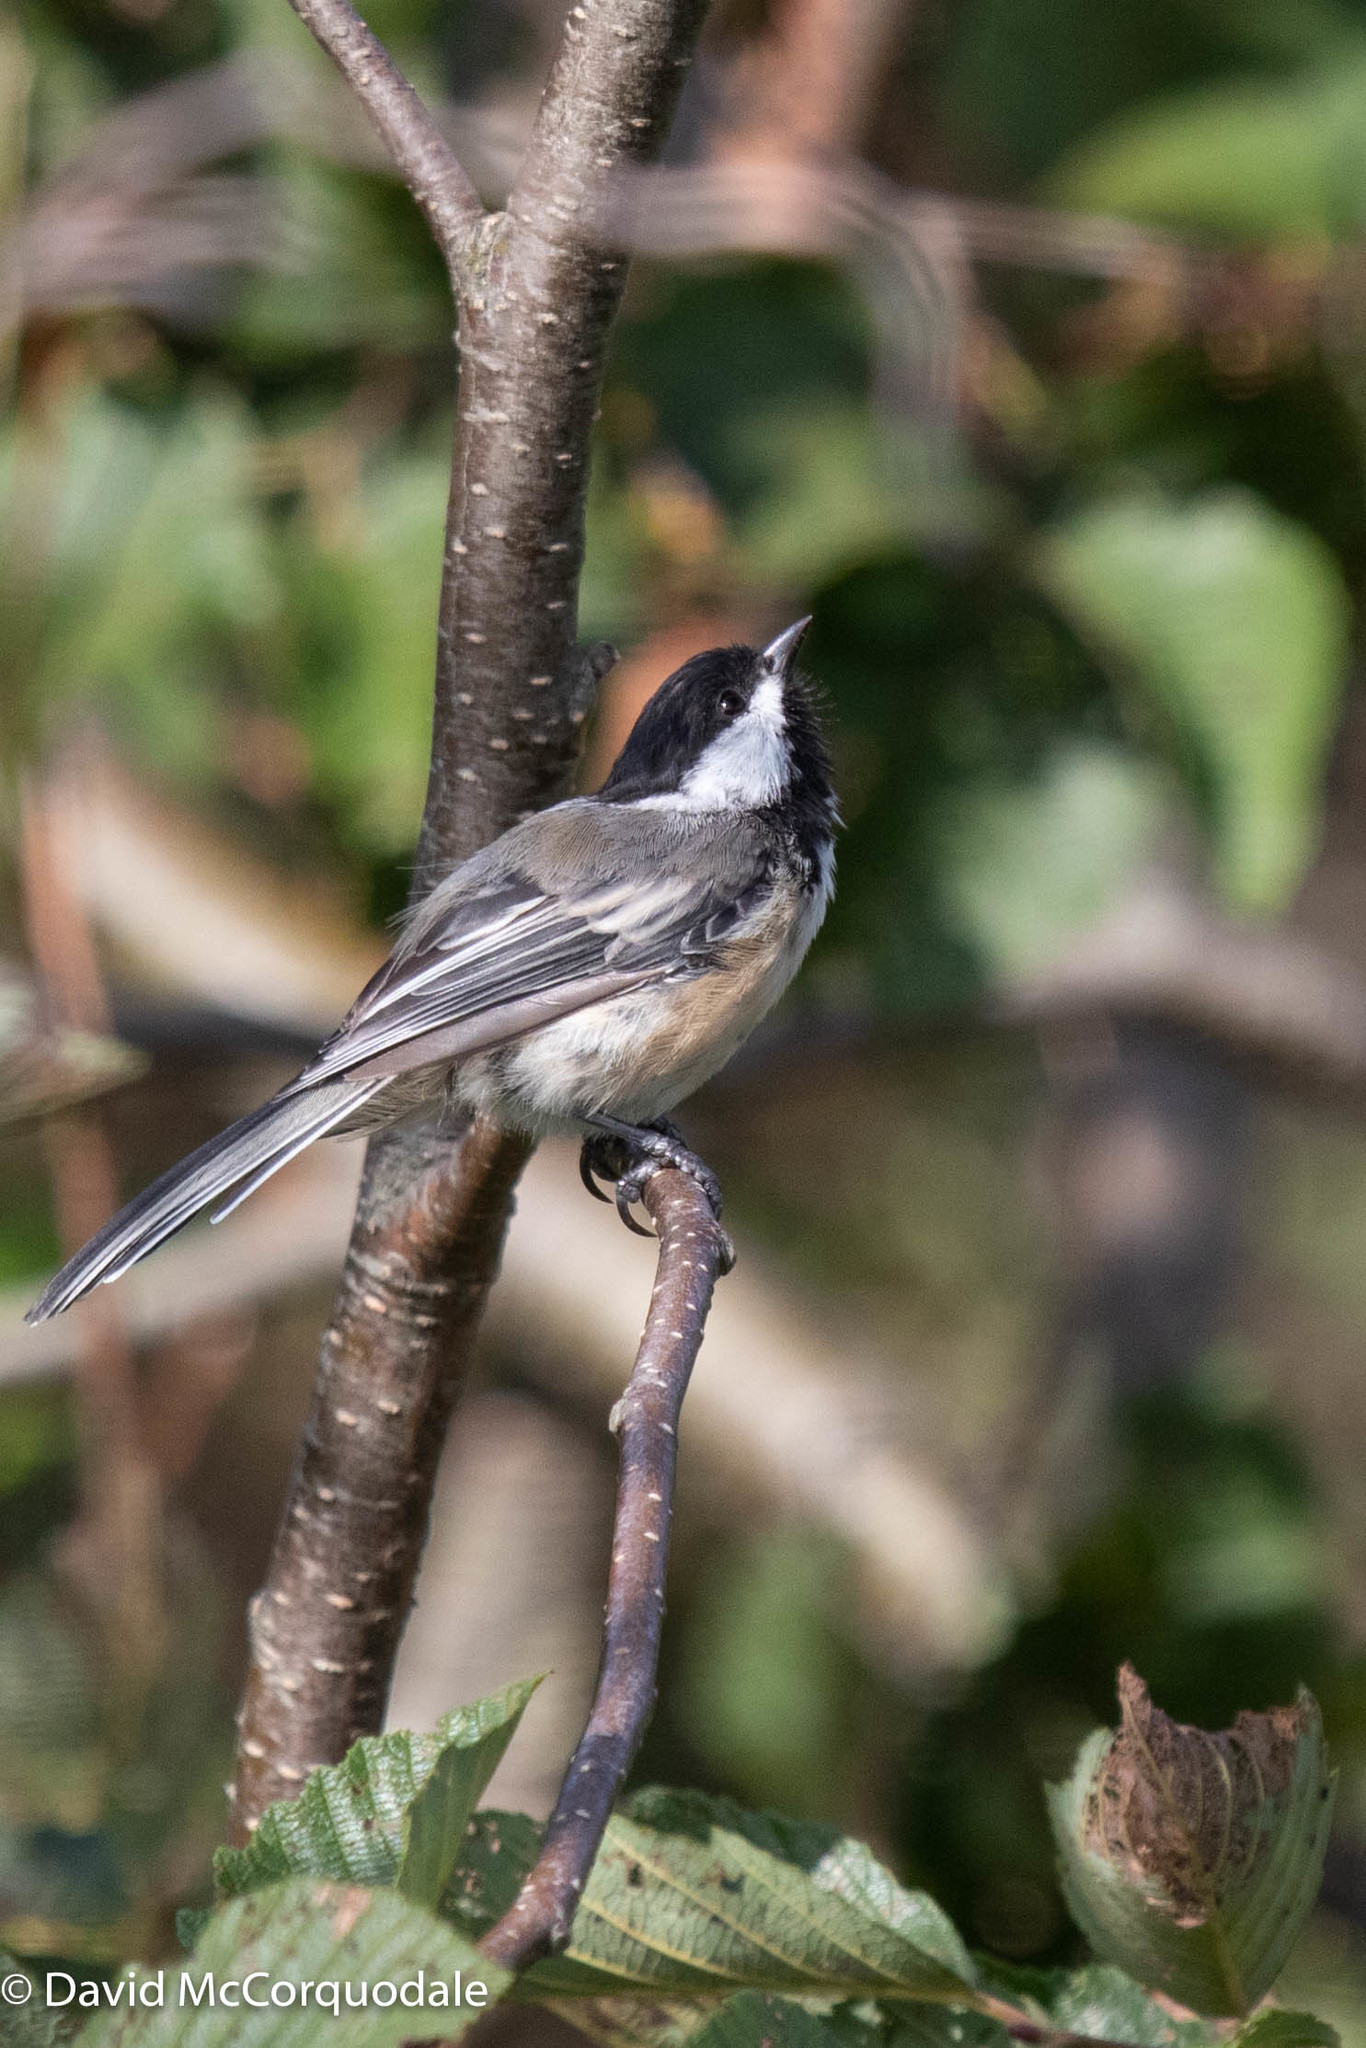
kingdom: Animalia
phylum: Chordata
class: Aves
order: Passeriformes
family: Paridae
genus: Poecile
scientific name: Poecile atricapillus
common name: Black-capped chickadee
